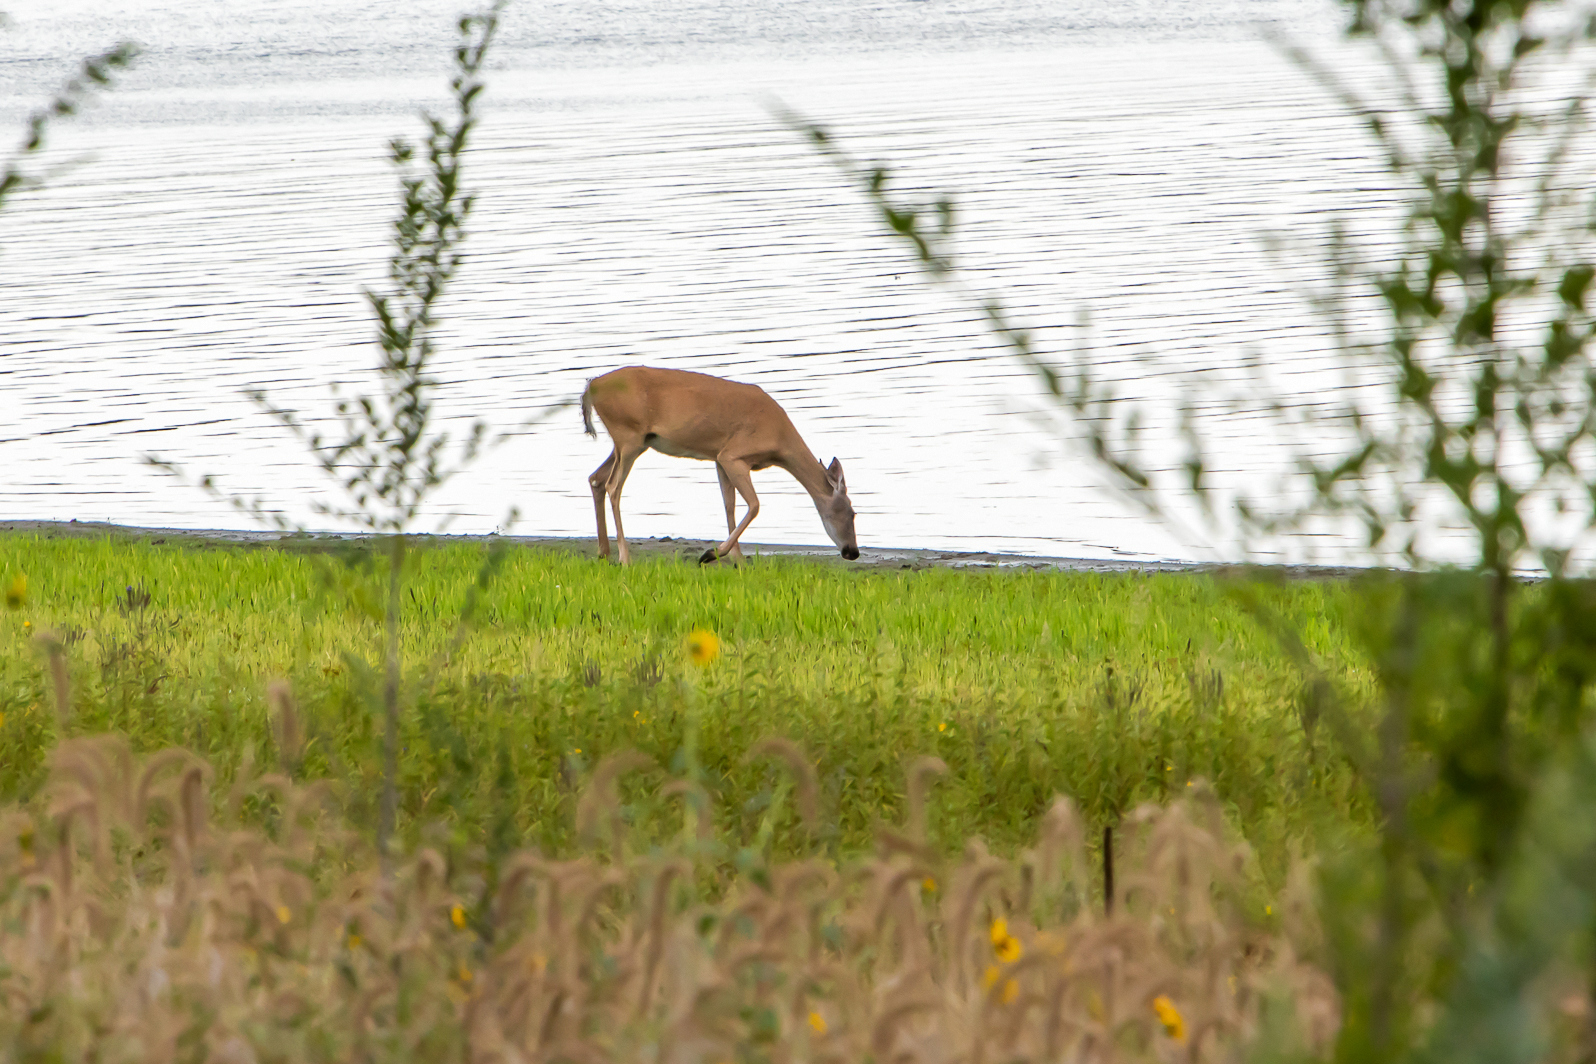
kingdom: Animalia
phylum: Chordata
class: Mammalia
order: Artiodactyla
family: Cervidae
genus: Odocoileus
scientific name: Odocoileus virginianus
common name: White-tailed deer
